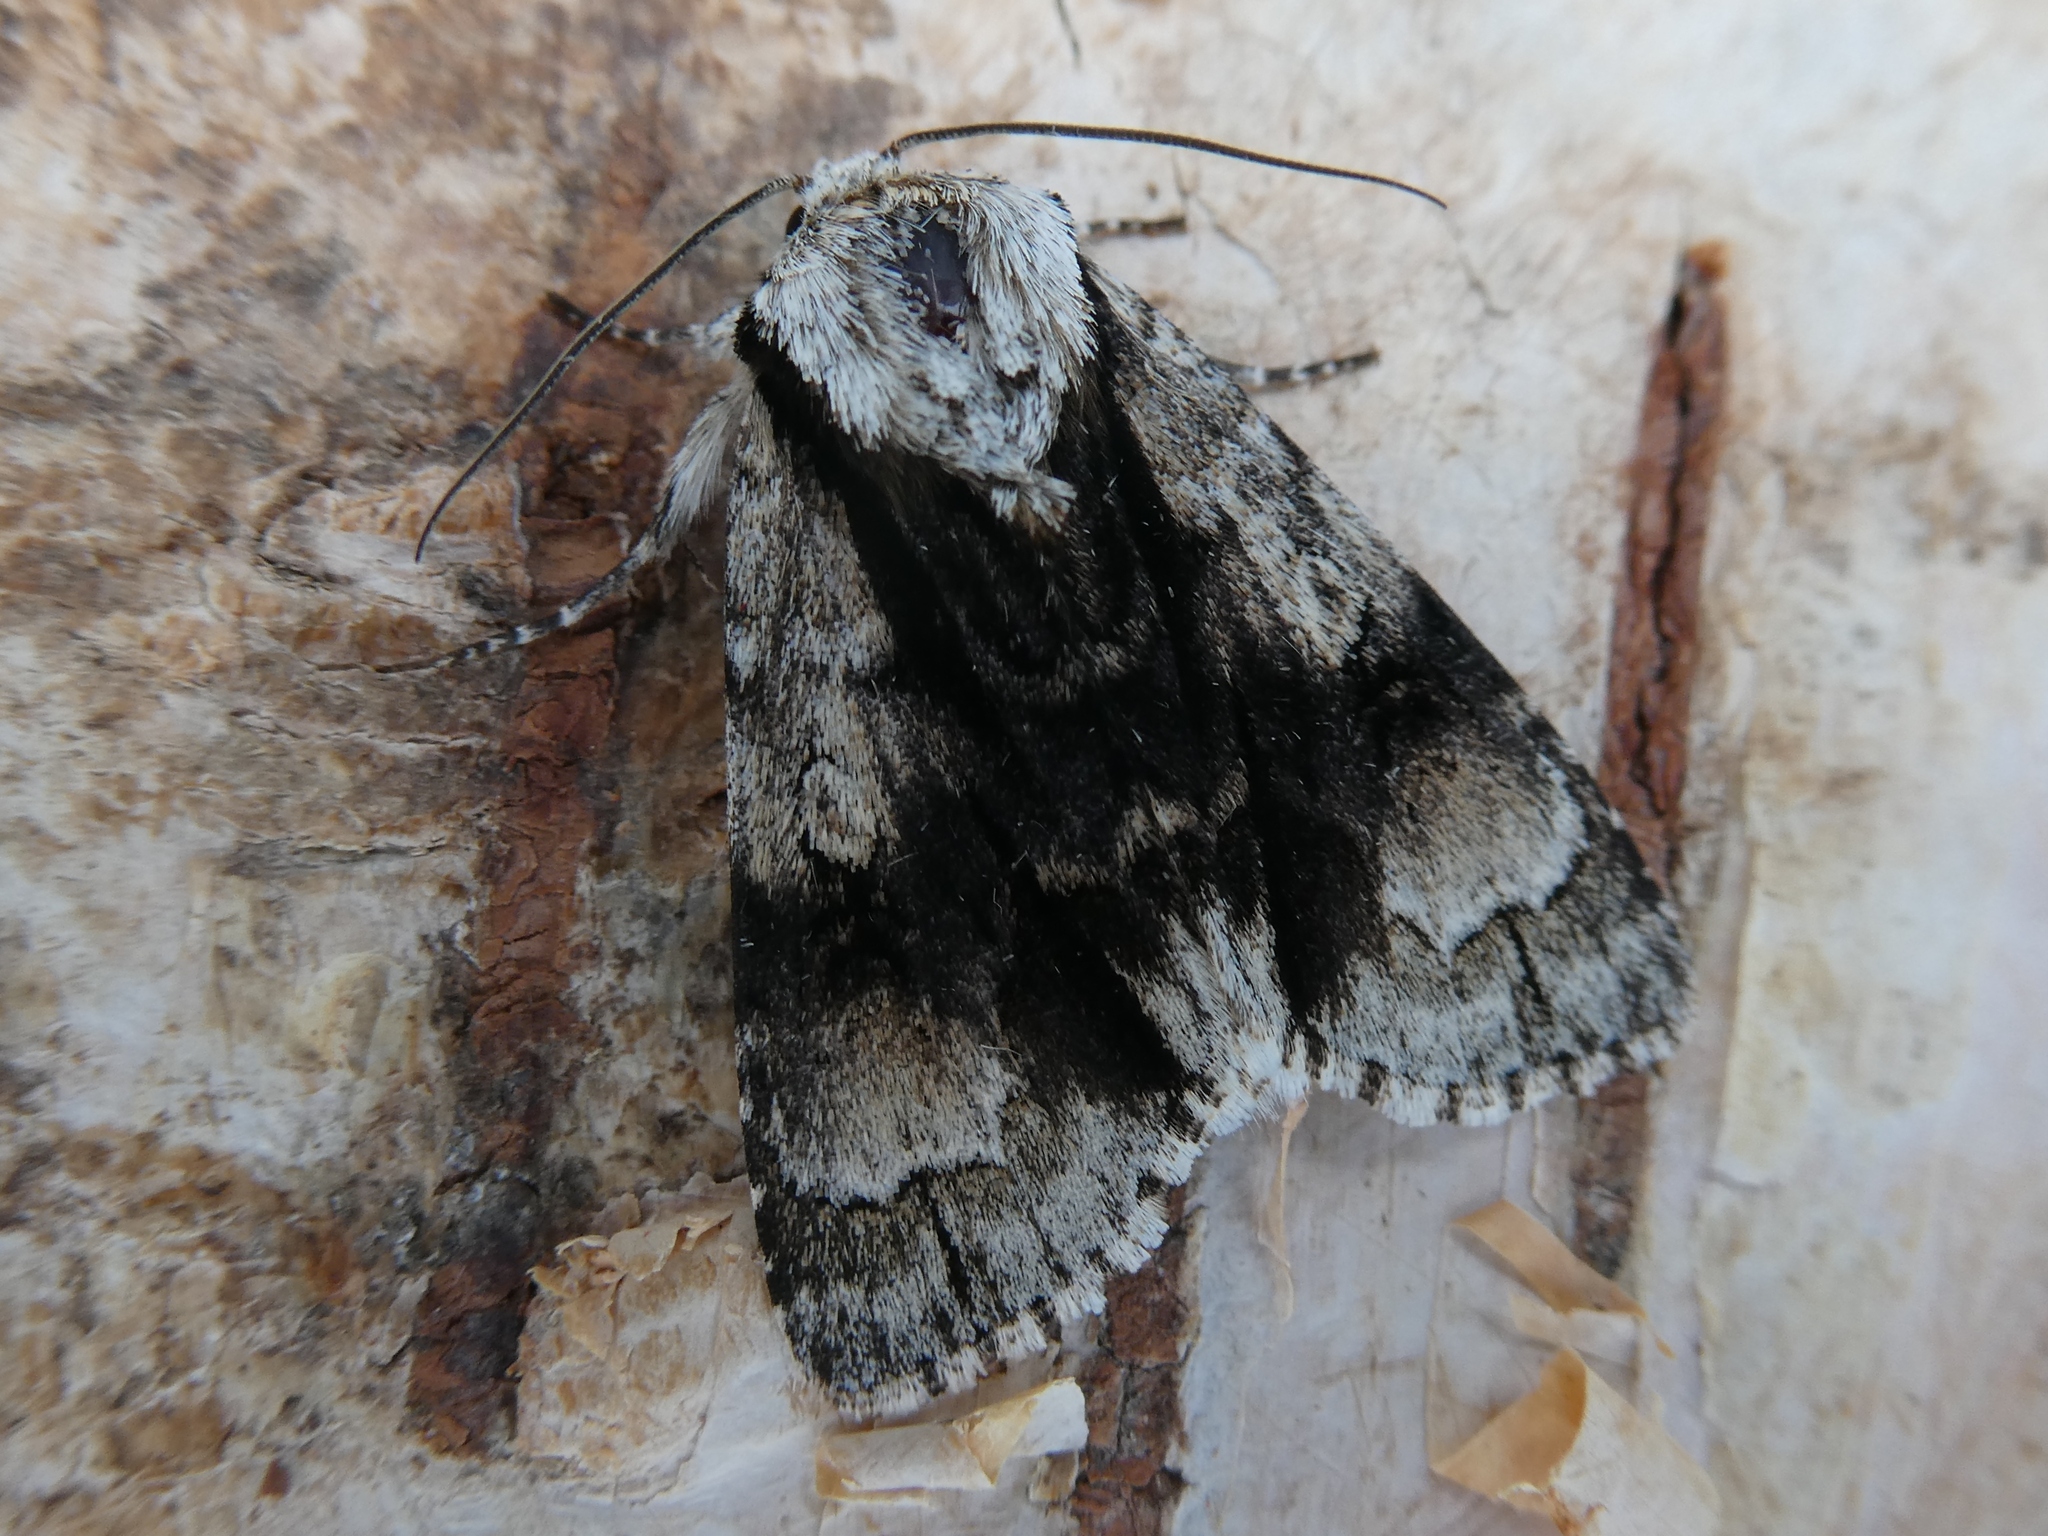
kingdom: Animalia
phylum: Arthropoda
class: Insecta
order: Lepidoptera
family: Noctuidae
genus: Acronicta
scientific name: Acronicta alni
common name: Alder moth
